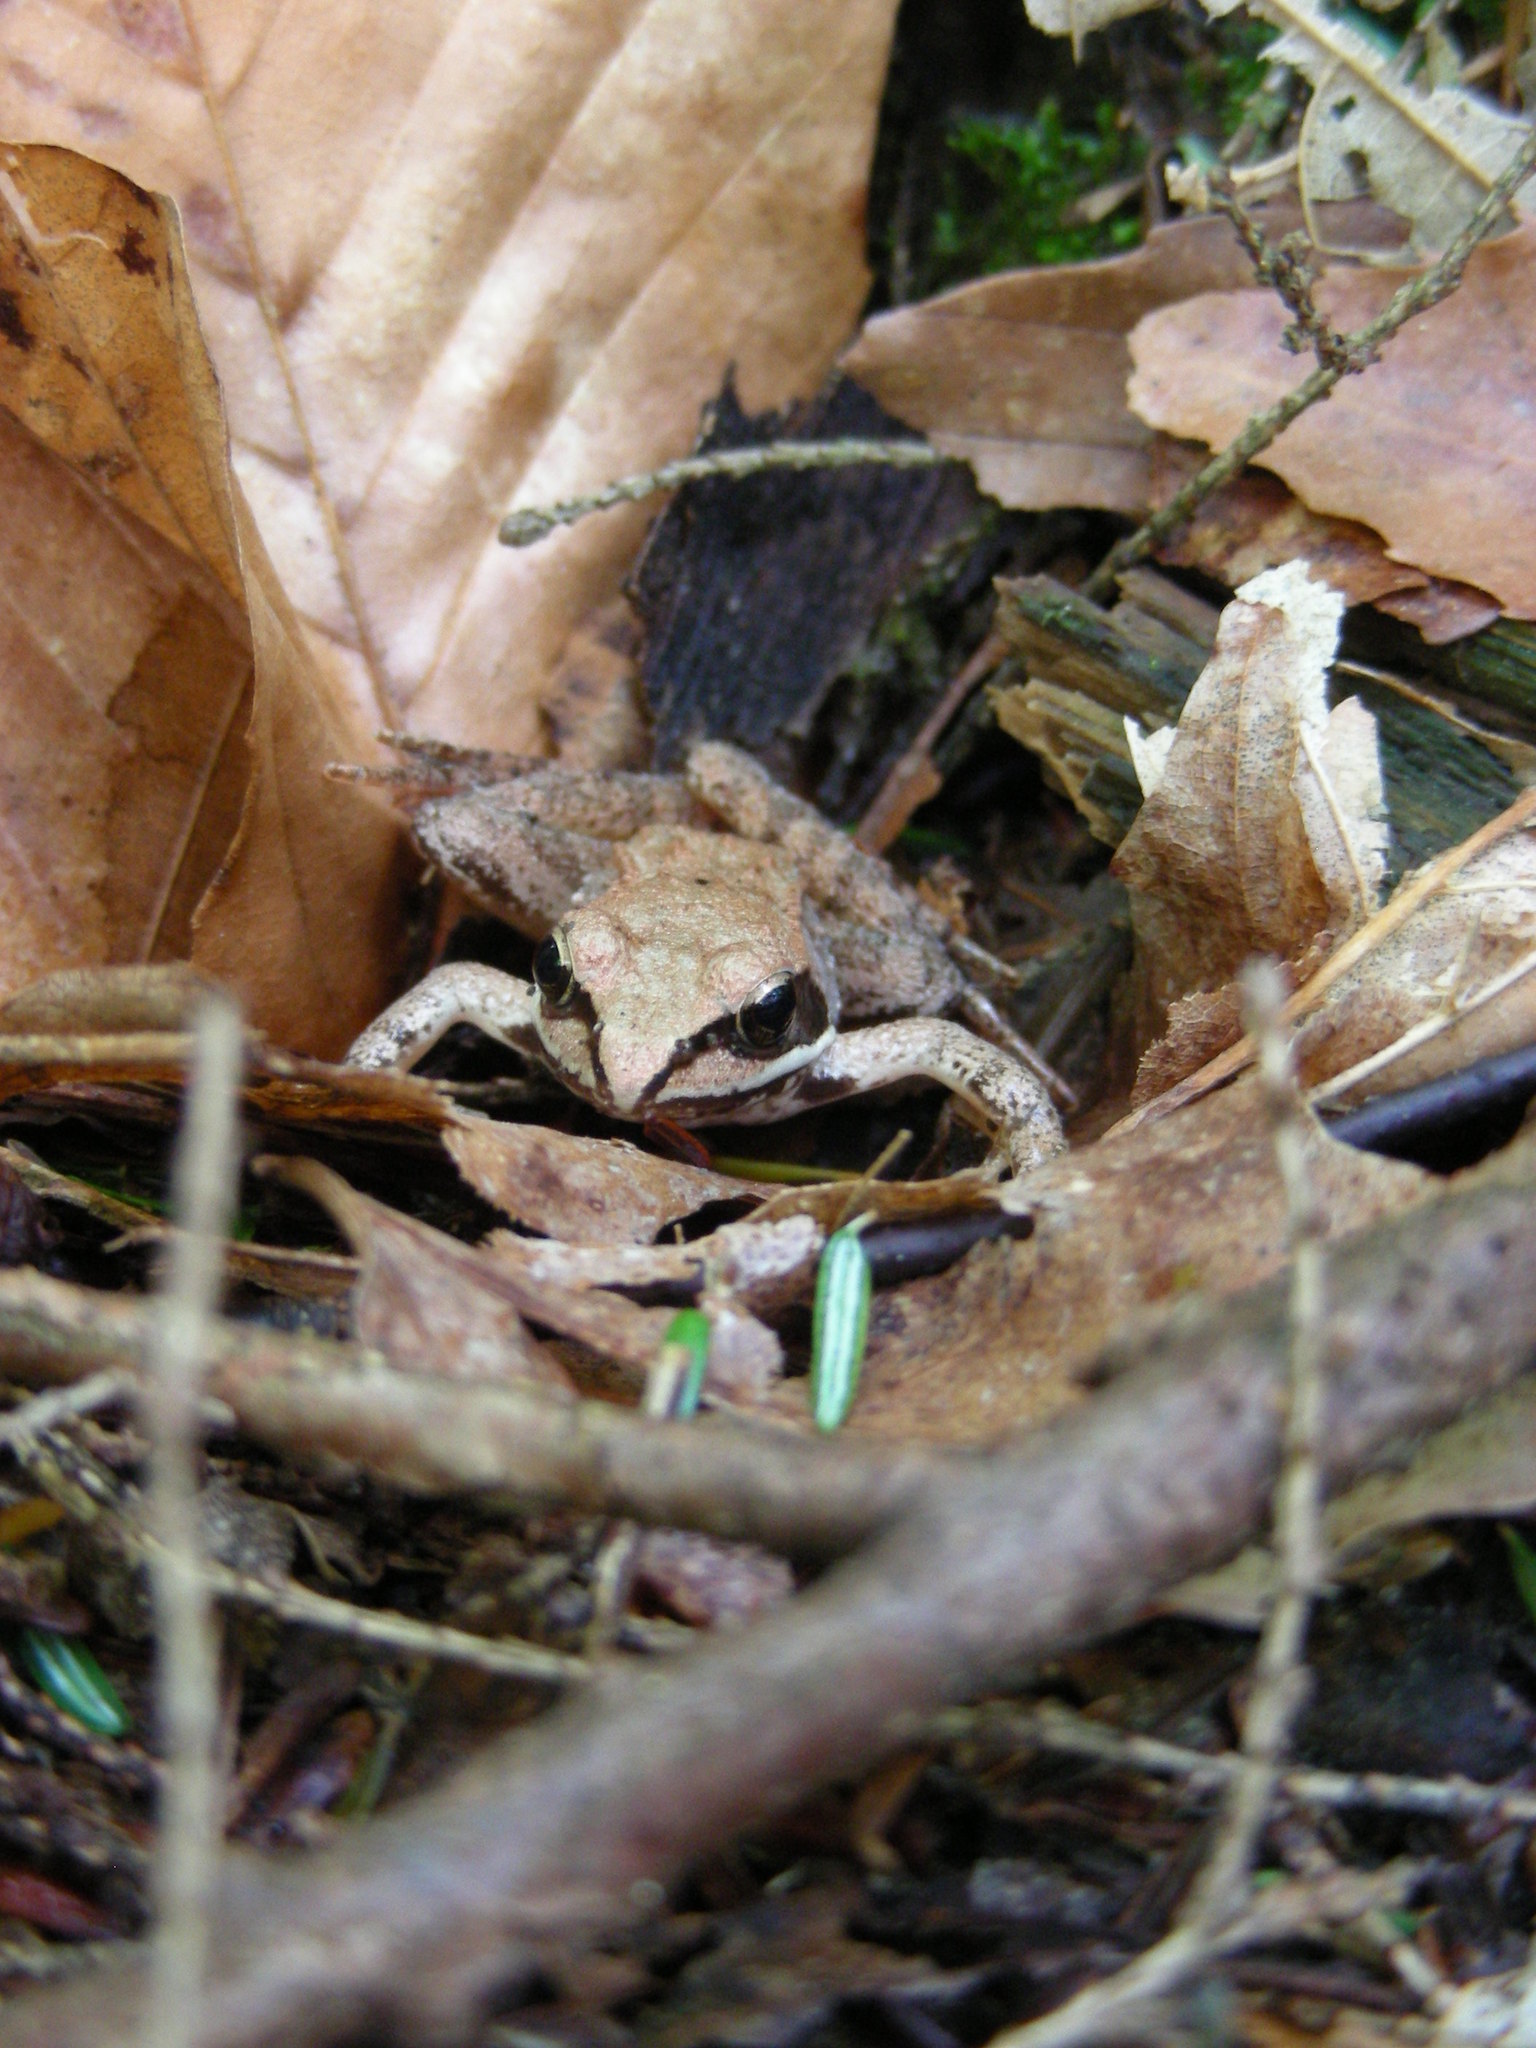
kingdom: Animalia
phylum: Chordata
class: Amphibia
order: Anura
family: Ranidae
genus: Lithobates
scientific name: Lithobates sylvaticus
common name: Wood frog
